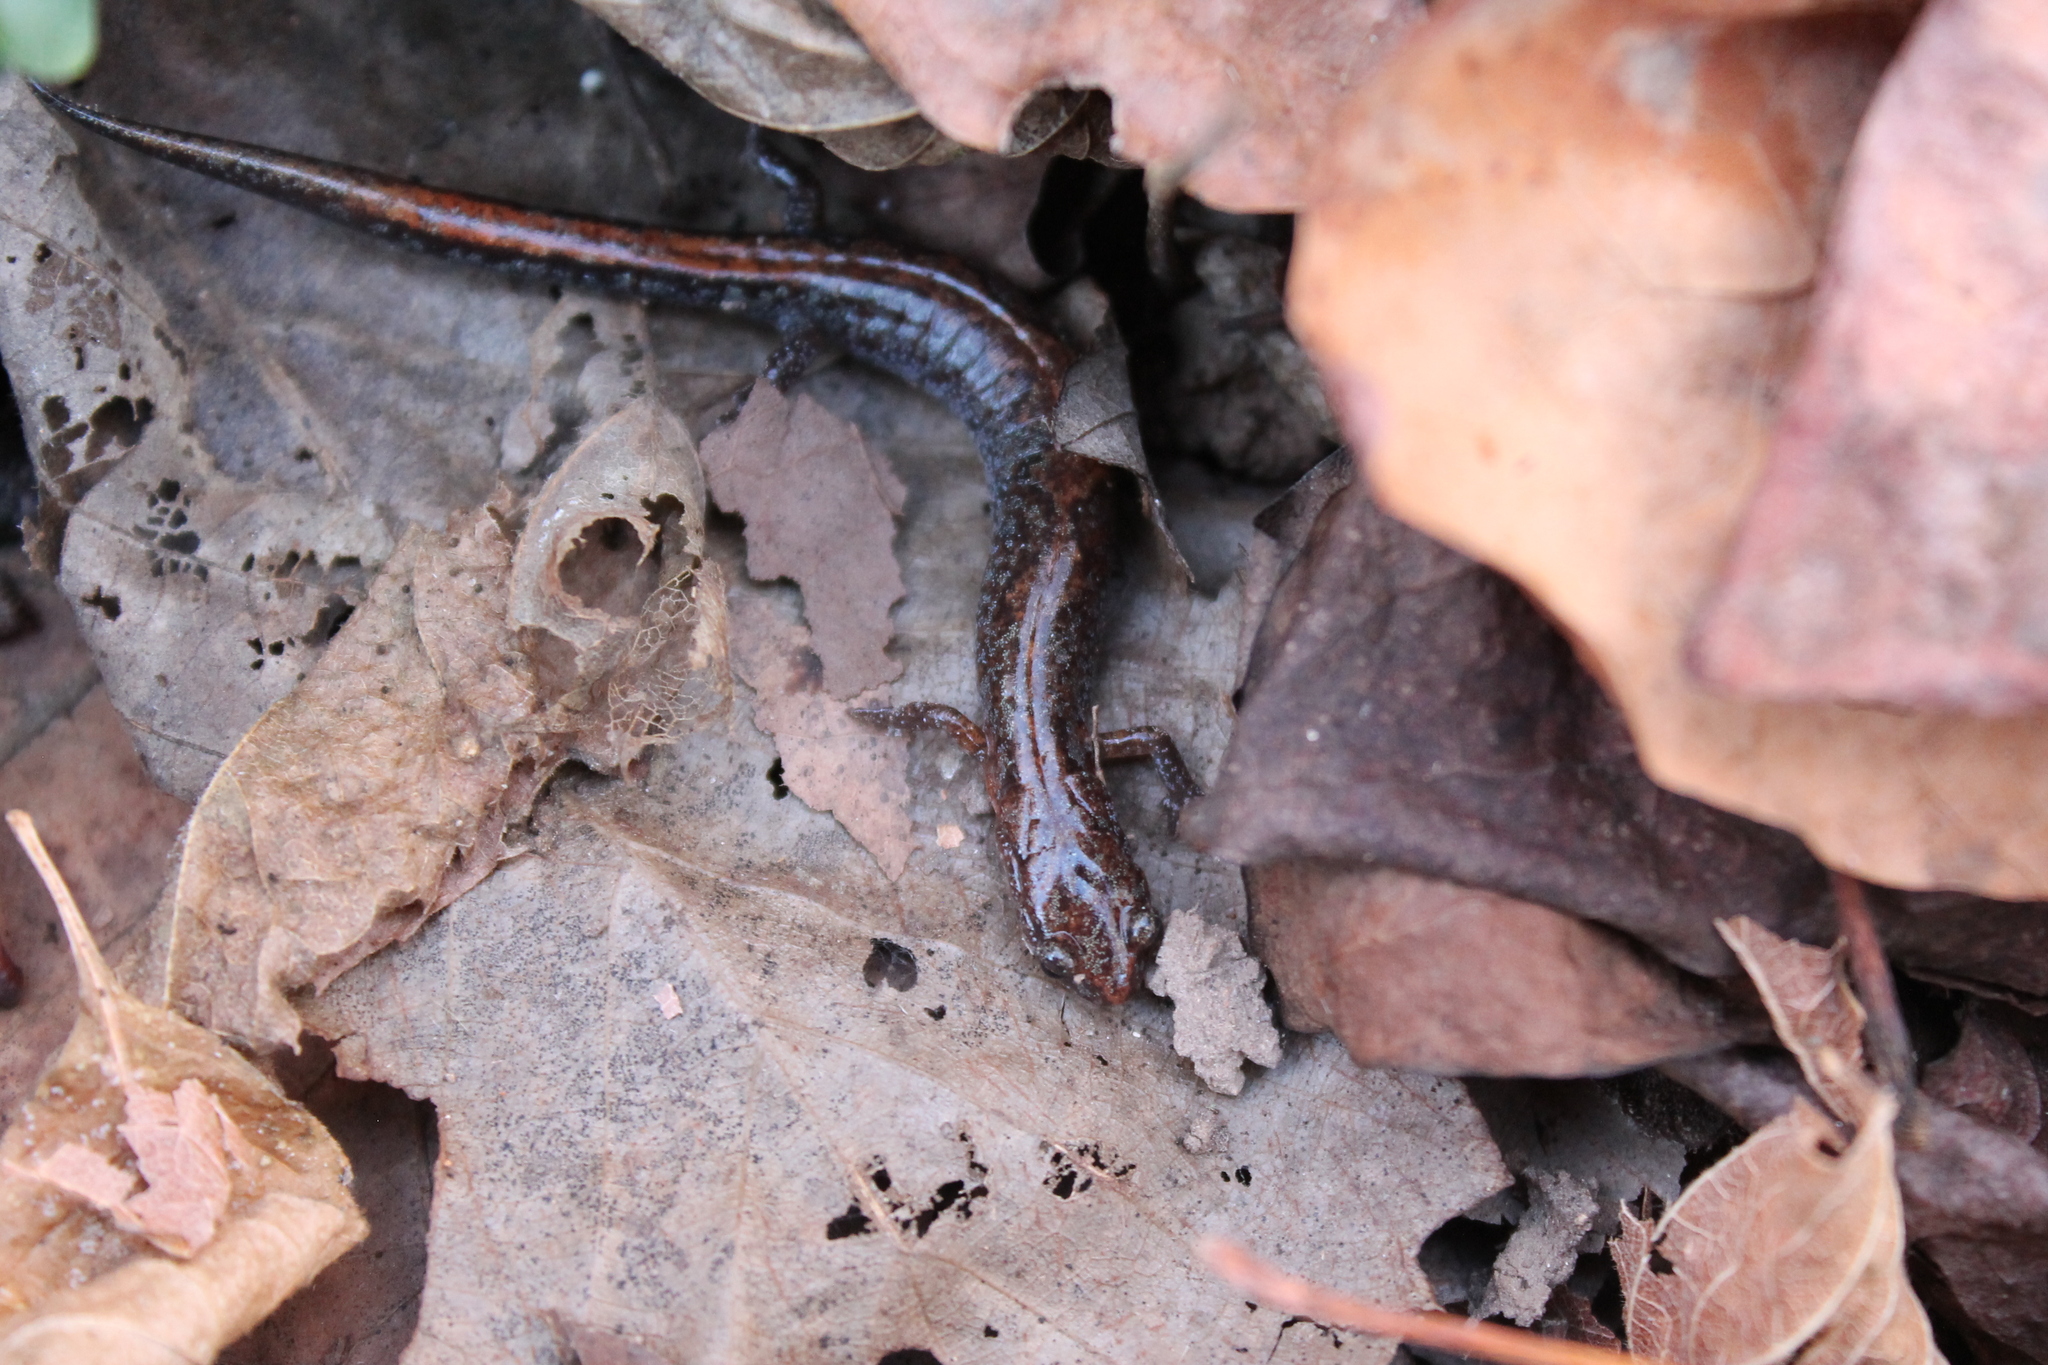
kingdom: Animalia
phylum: Chordata
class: Amphibia
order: Caudata
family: Plethodontidae
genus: Plethodon
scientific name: Plethodon dorsalis
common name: Northern zigzag salamander
